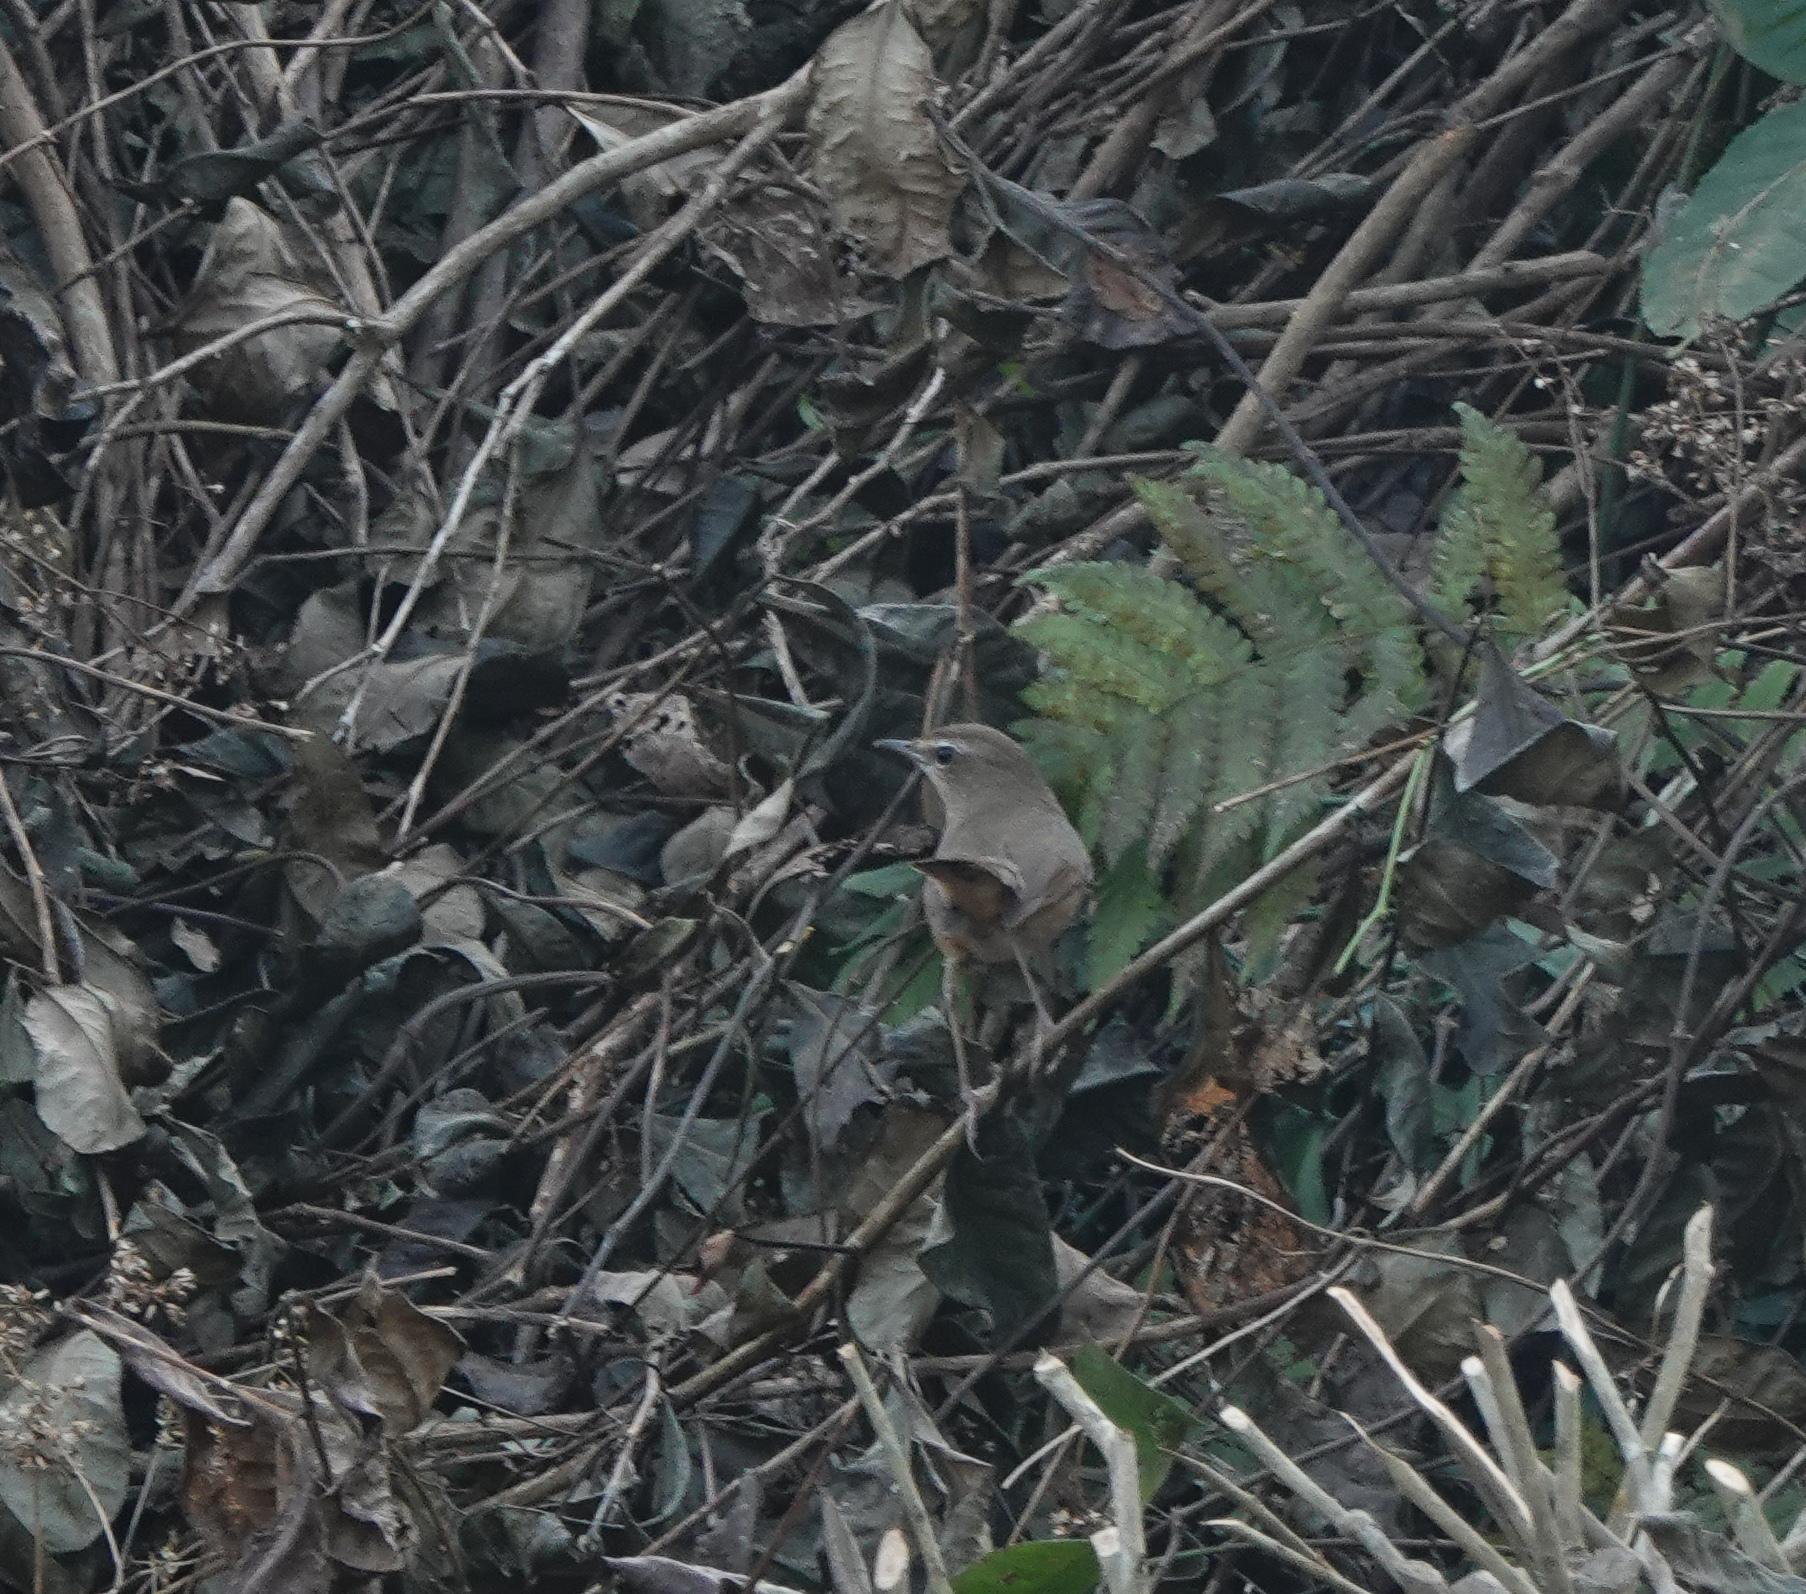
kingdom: Animalia
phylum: Chordata
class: Aves
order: Passeriformes
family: Muscicapidae
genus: Luscinia
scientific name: Luscinia calliope
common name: Siberian rubythroat
